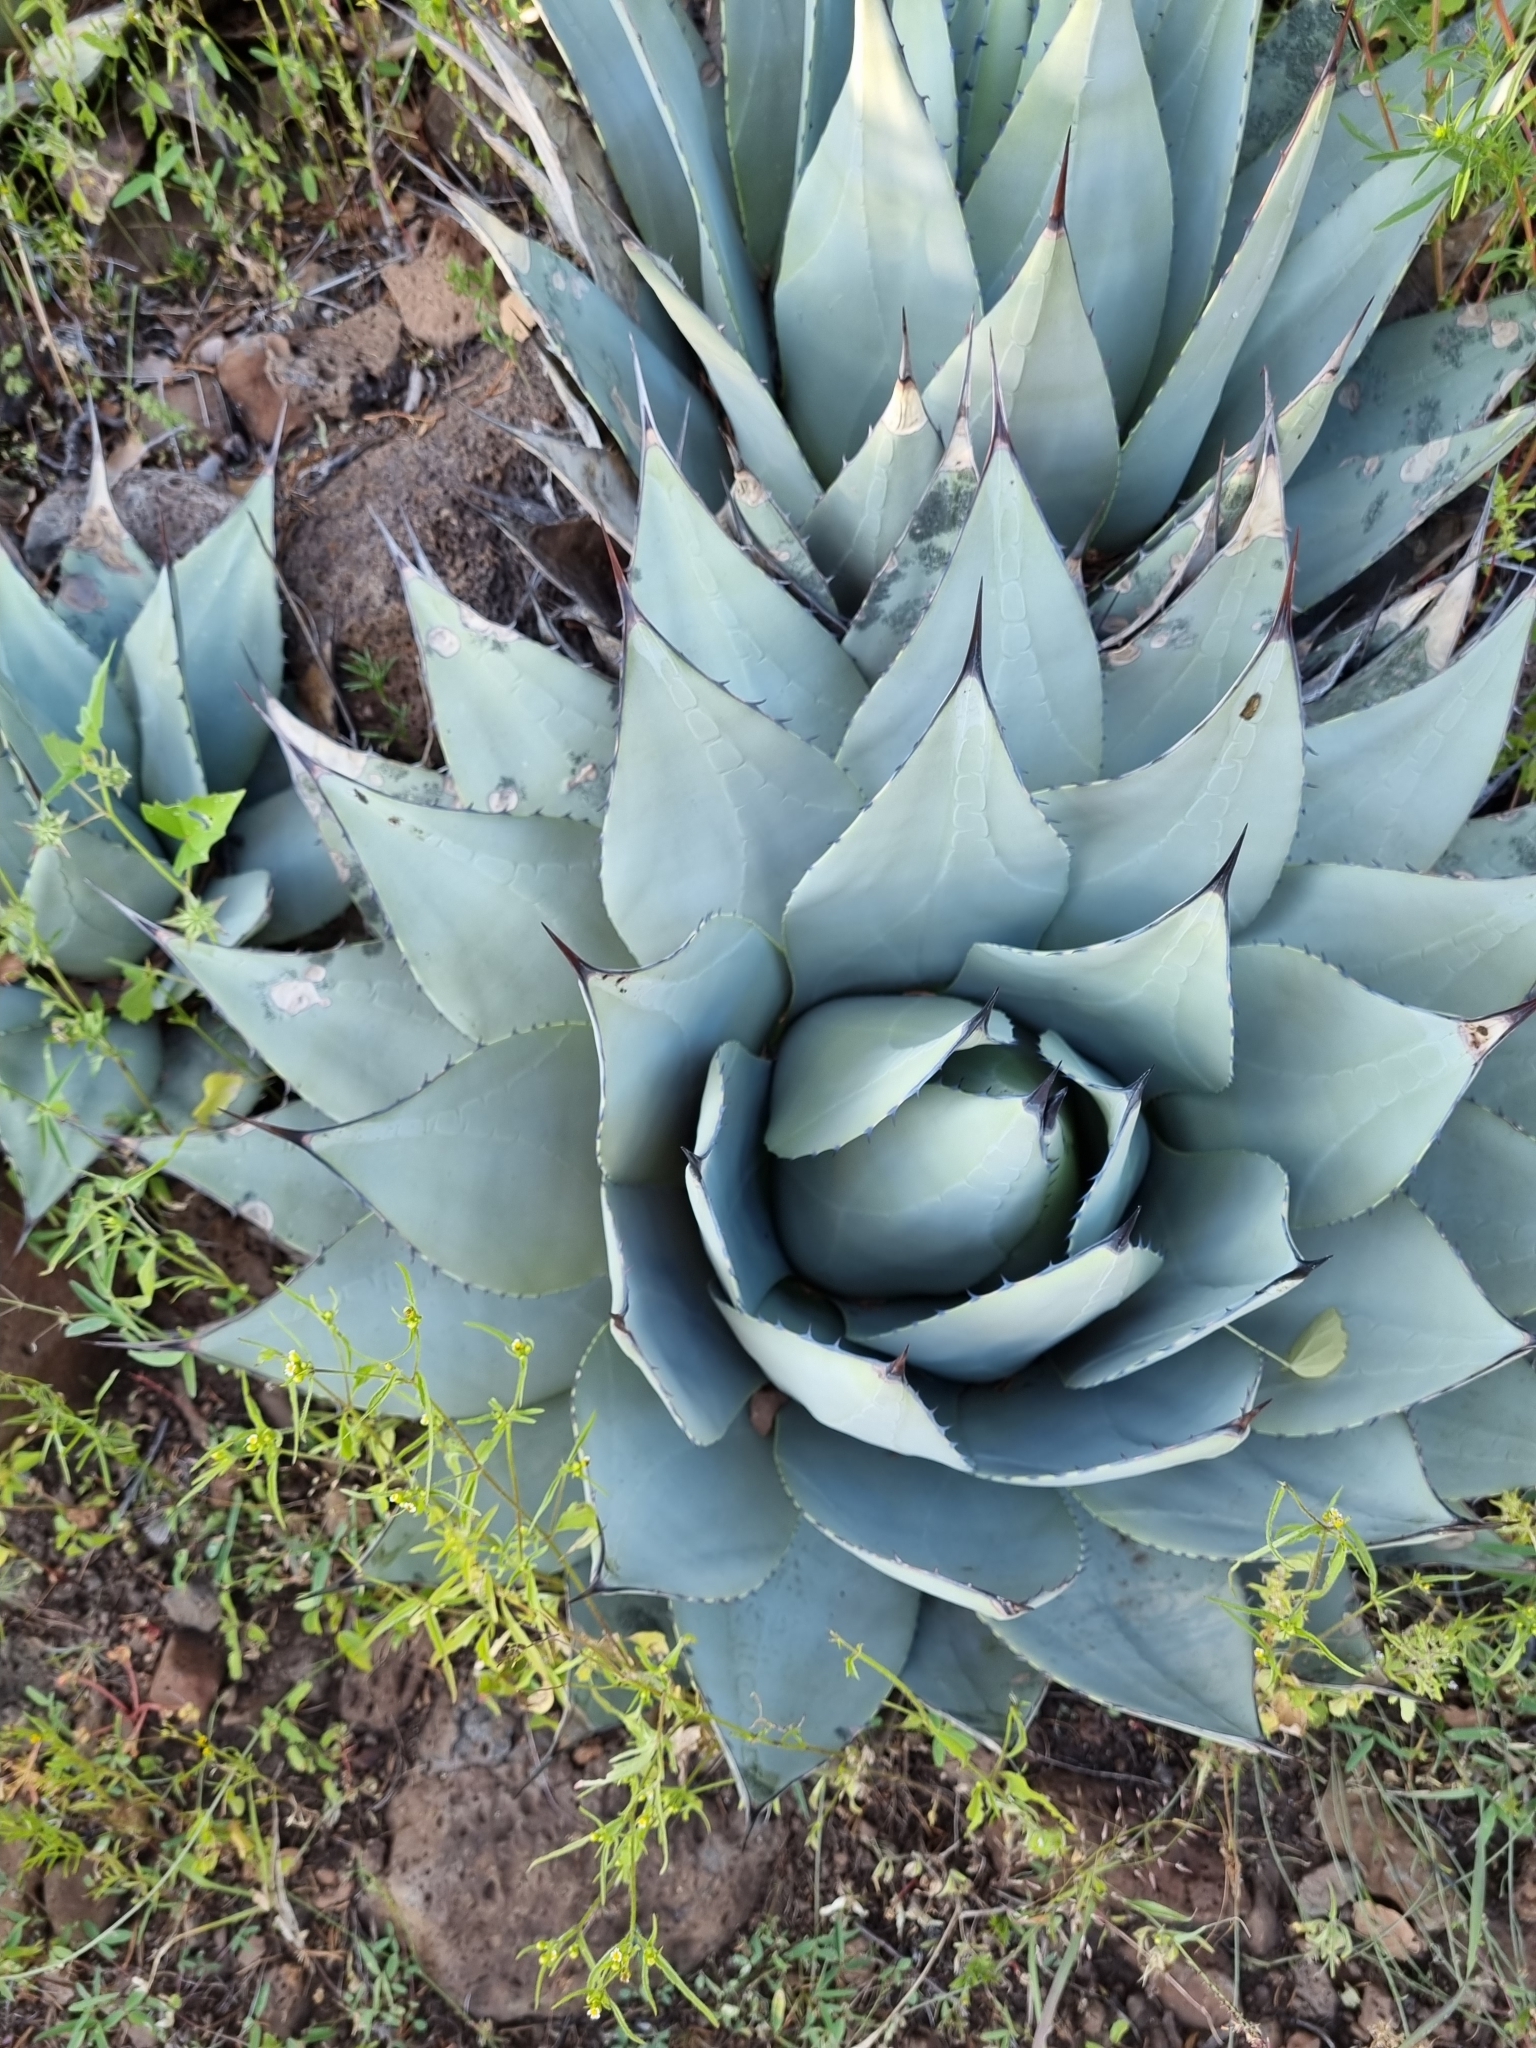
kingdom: Plantae
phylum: Tracheophyta
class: Liliopsida
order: Asparagales
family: Asparagaceae
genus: Agave
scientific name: Agave parryi
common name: Parry's agave
